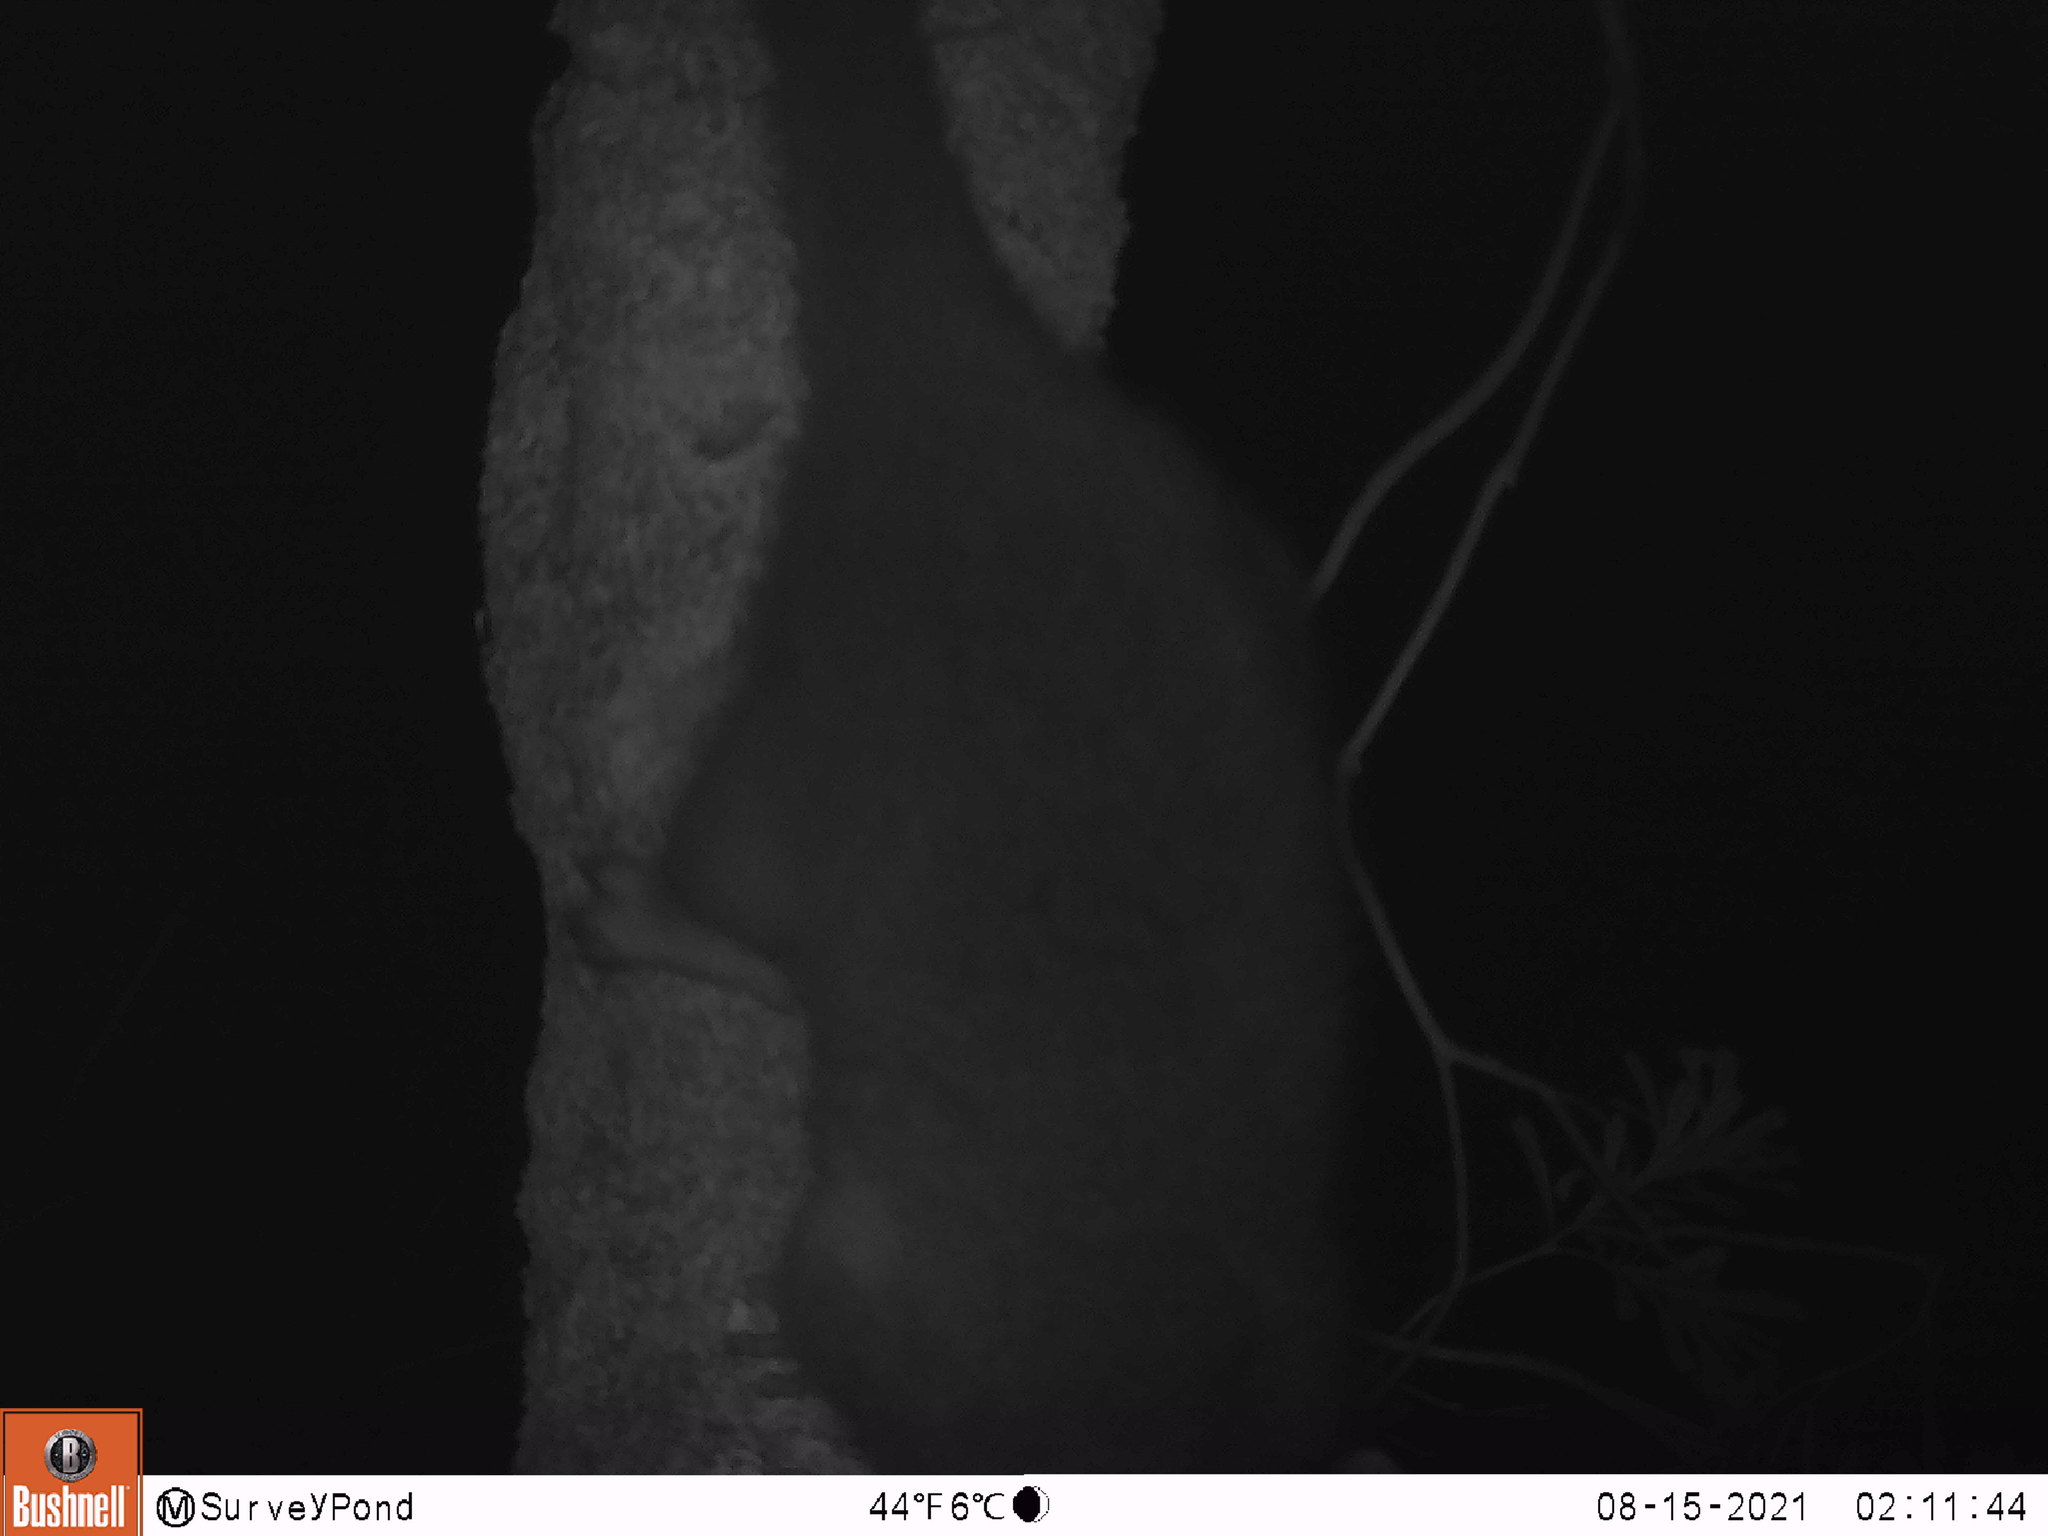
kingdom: Animalia
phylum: Chordata
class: Mammalia
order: Diprotodontia
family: Pseudocheiridae
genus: Pseudocheirus
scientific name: Pseudocheirus peregrinus
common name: Common ringtail possum
